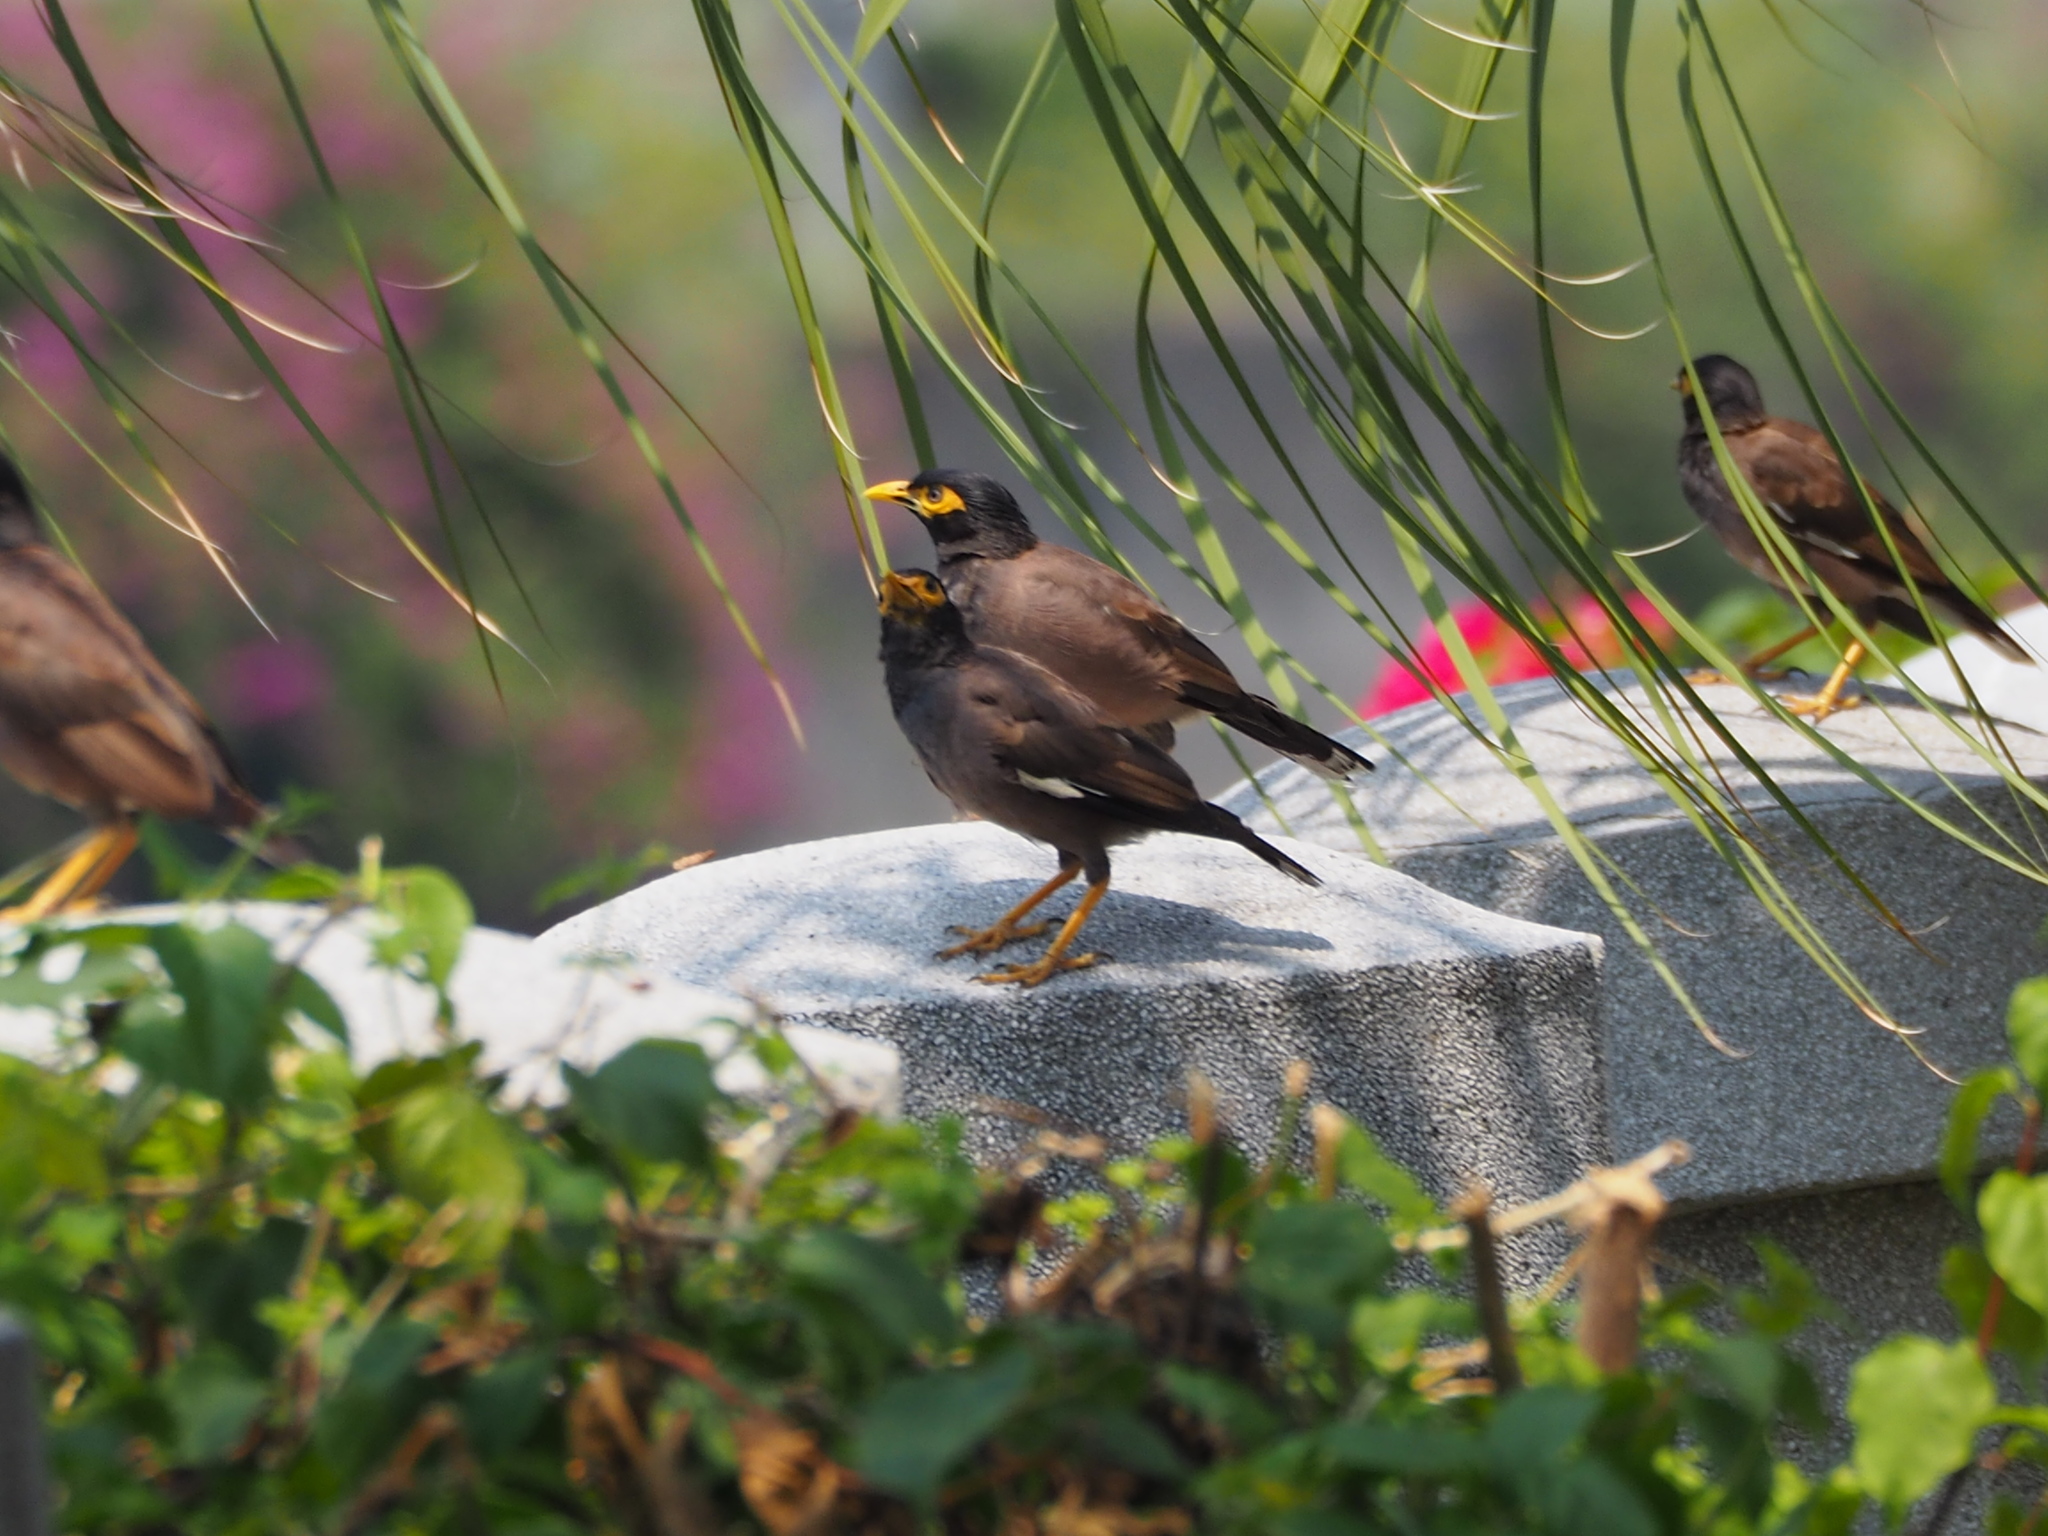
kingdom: Animalia
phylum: Chordata
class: Aves
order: Passeriformes
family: Sturnidae
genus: Acridotheres
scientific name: Acridotheres tristis
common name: Common myna
